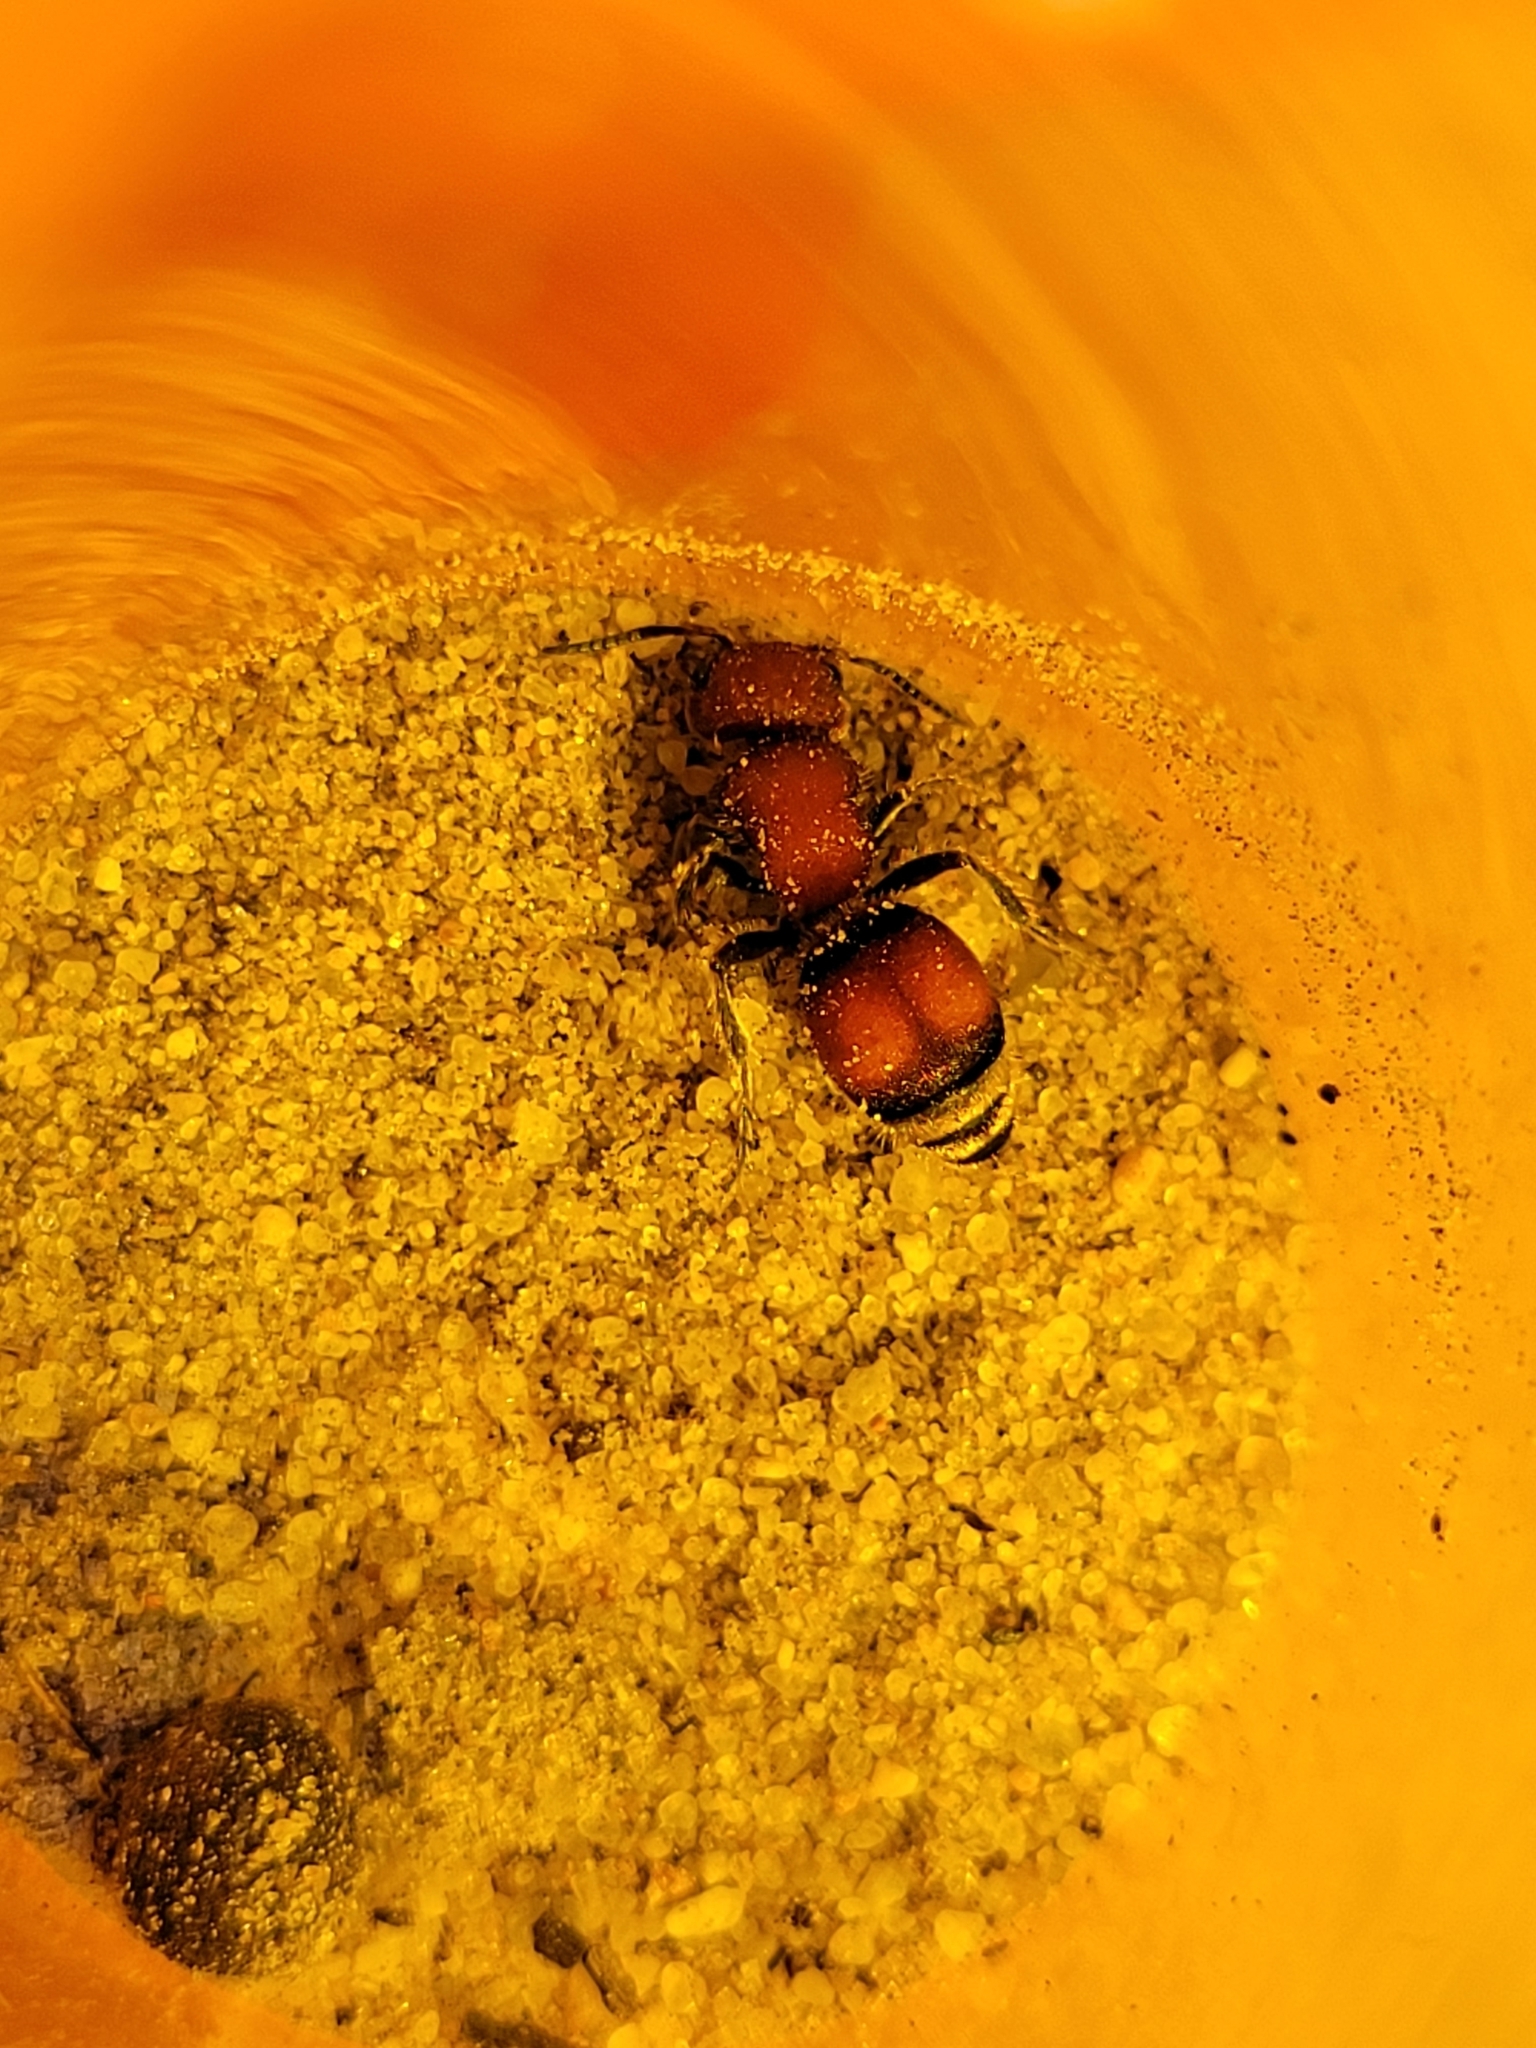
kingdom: Animalia
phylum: Arthropoda
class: Insecta
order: Hymenoptera
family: Mutillidae
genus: Pseudomethoca
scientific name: Pseudomethoca
